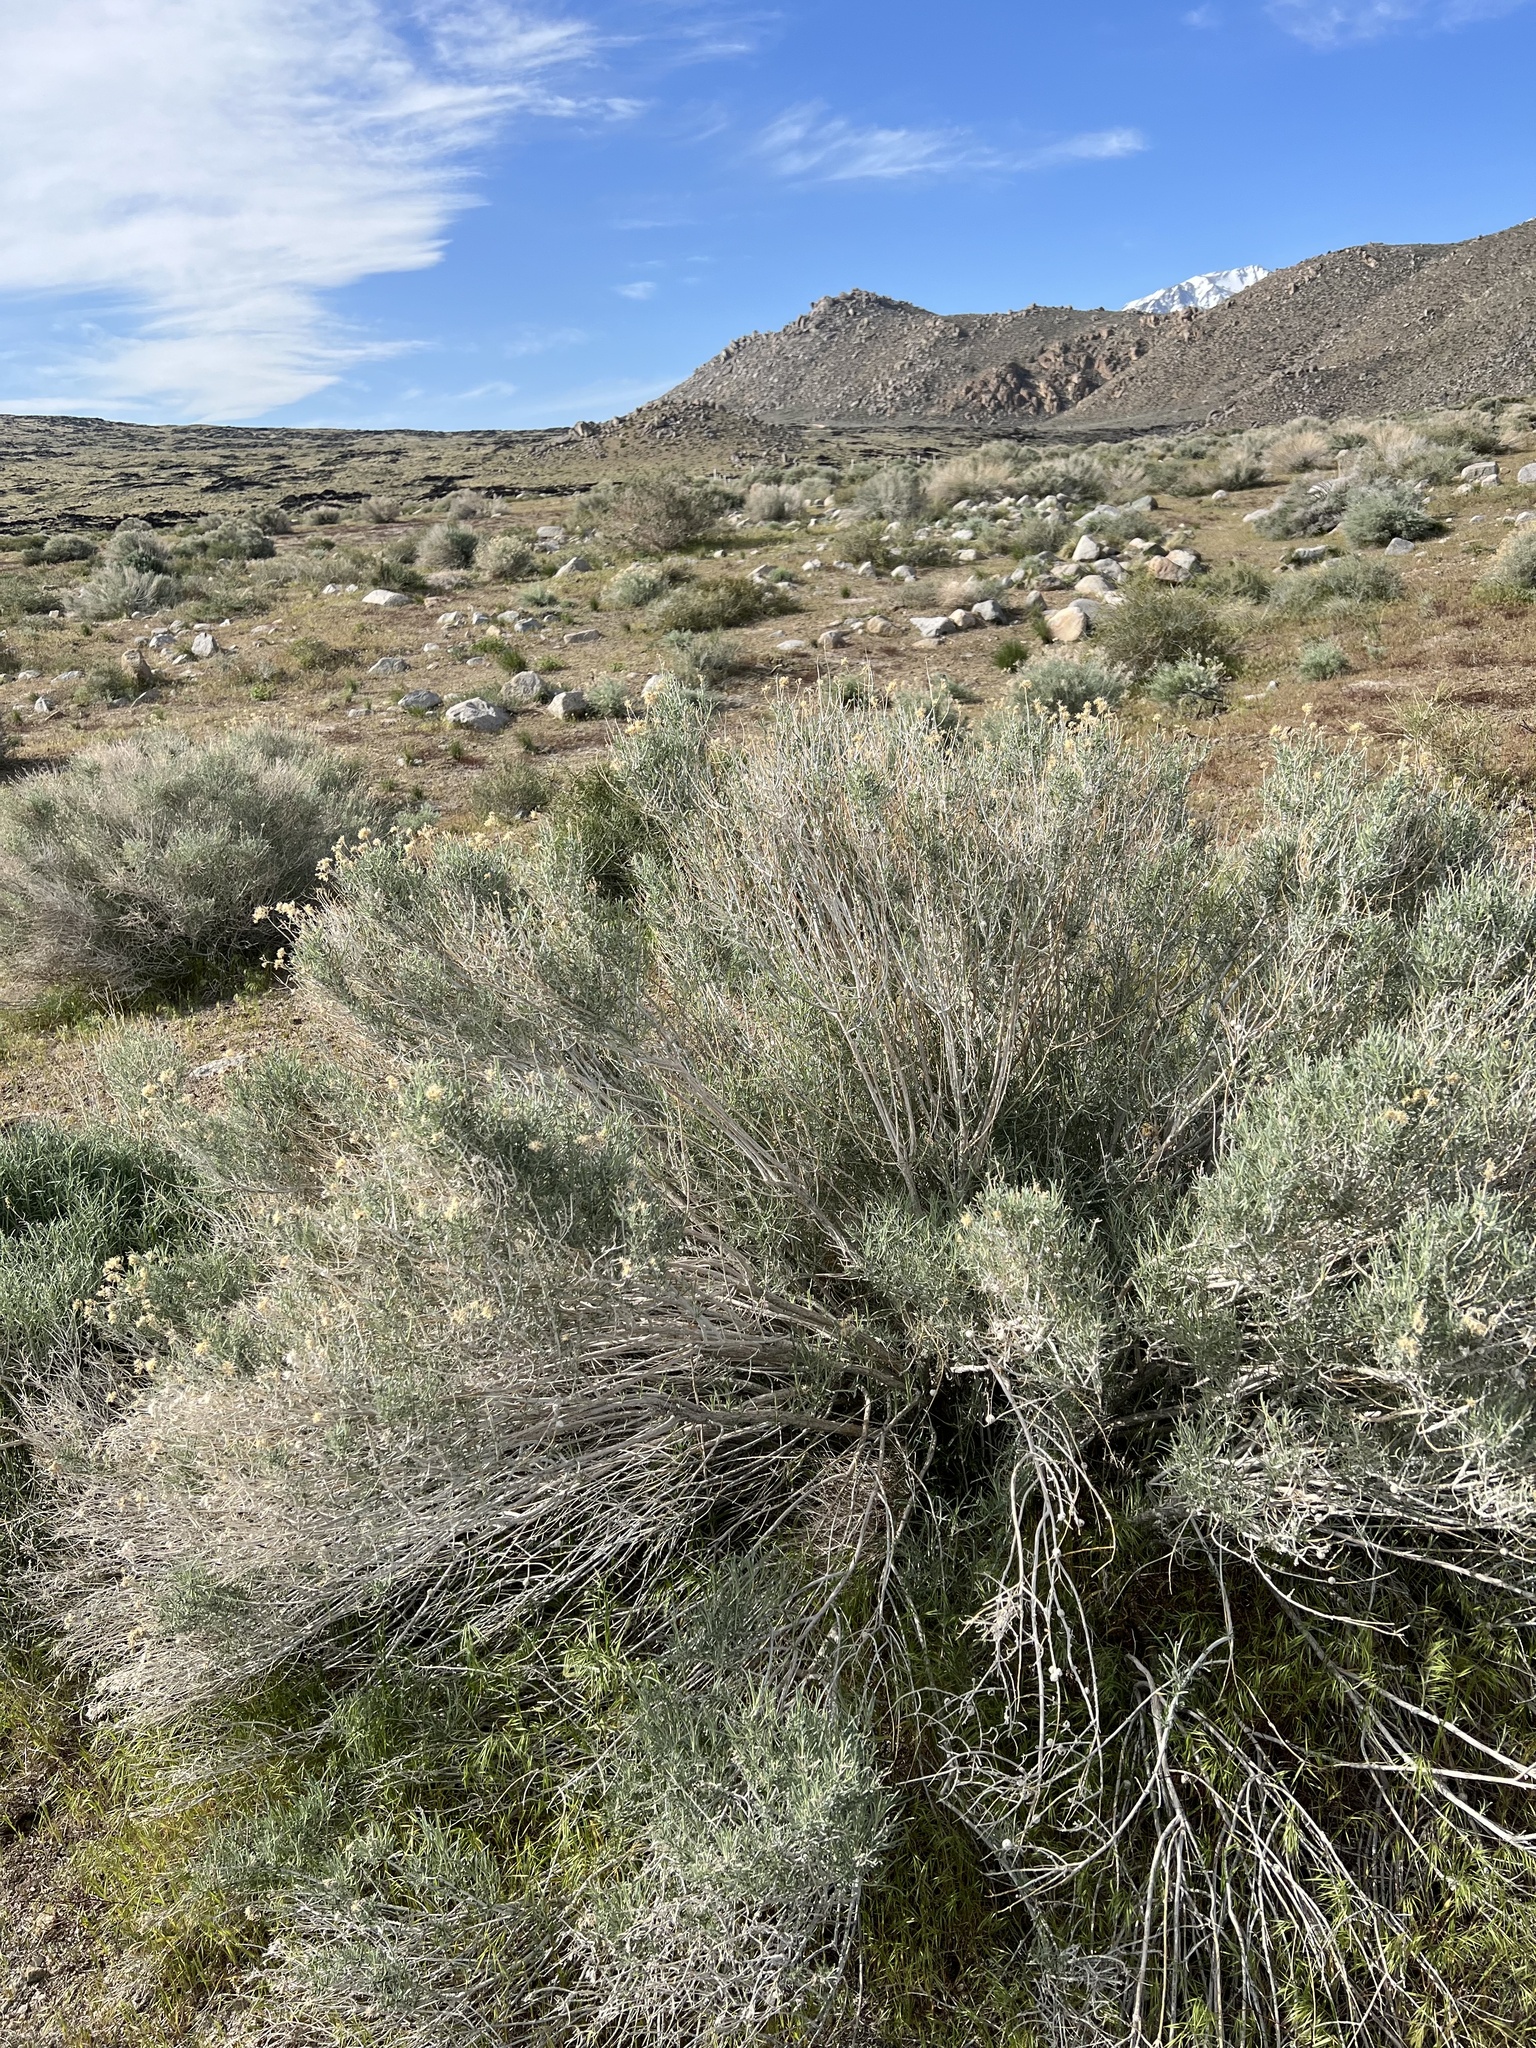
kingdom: Plantae
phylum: Tracheophyta
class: Magnoliopsida
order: Asterales
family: Asteraceae
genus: Ericameria
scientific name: Ericameria nauseosa
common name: Rubber rabbitbrush
